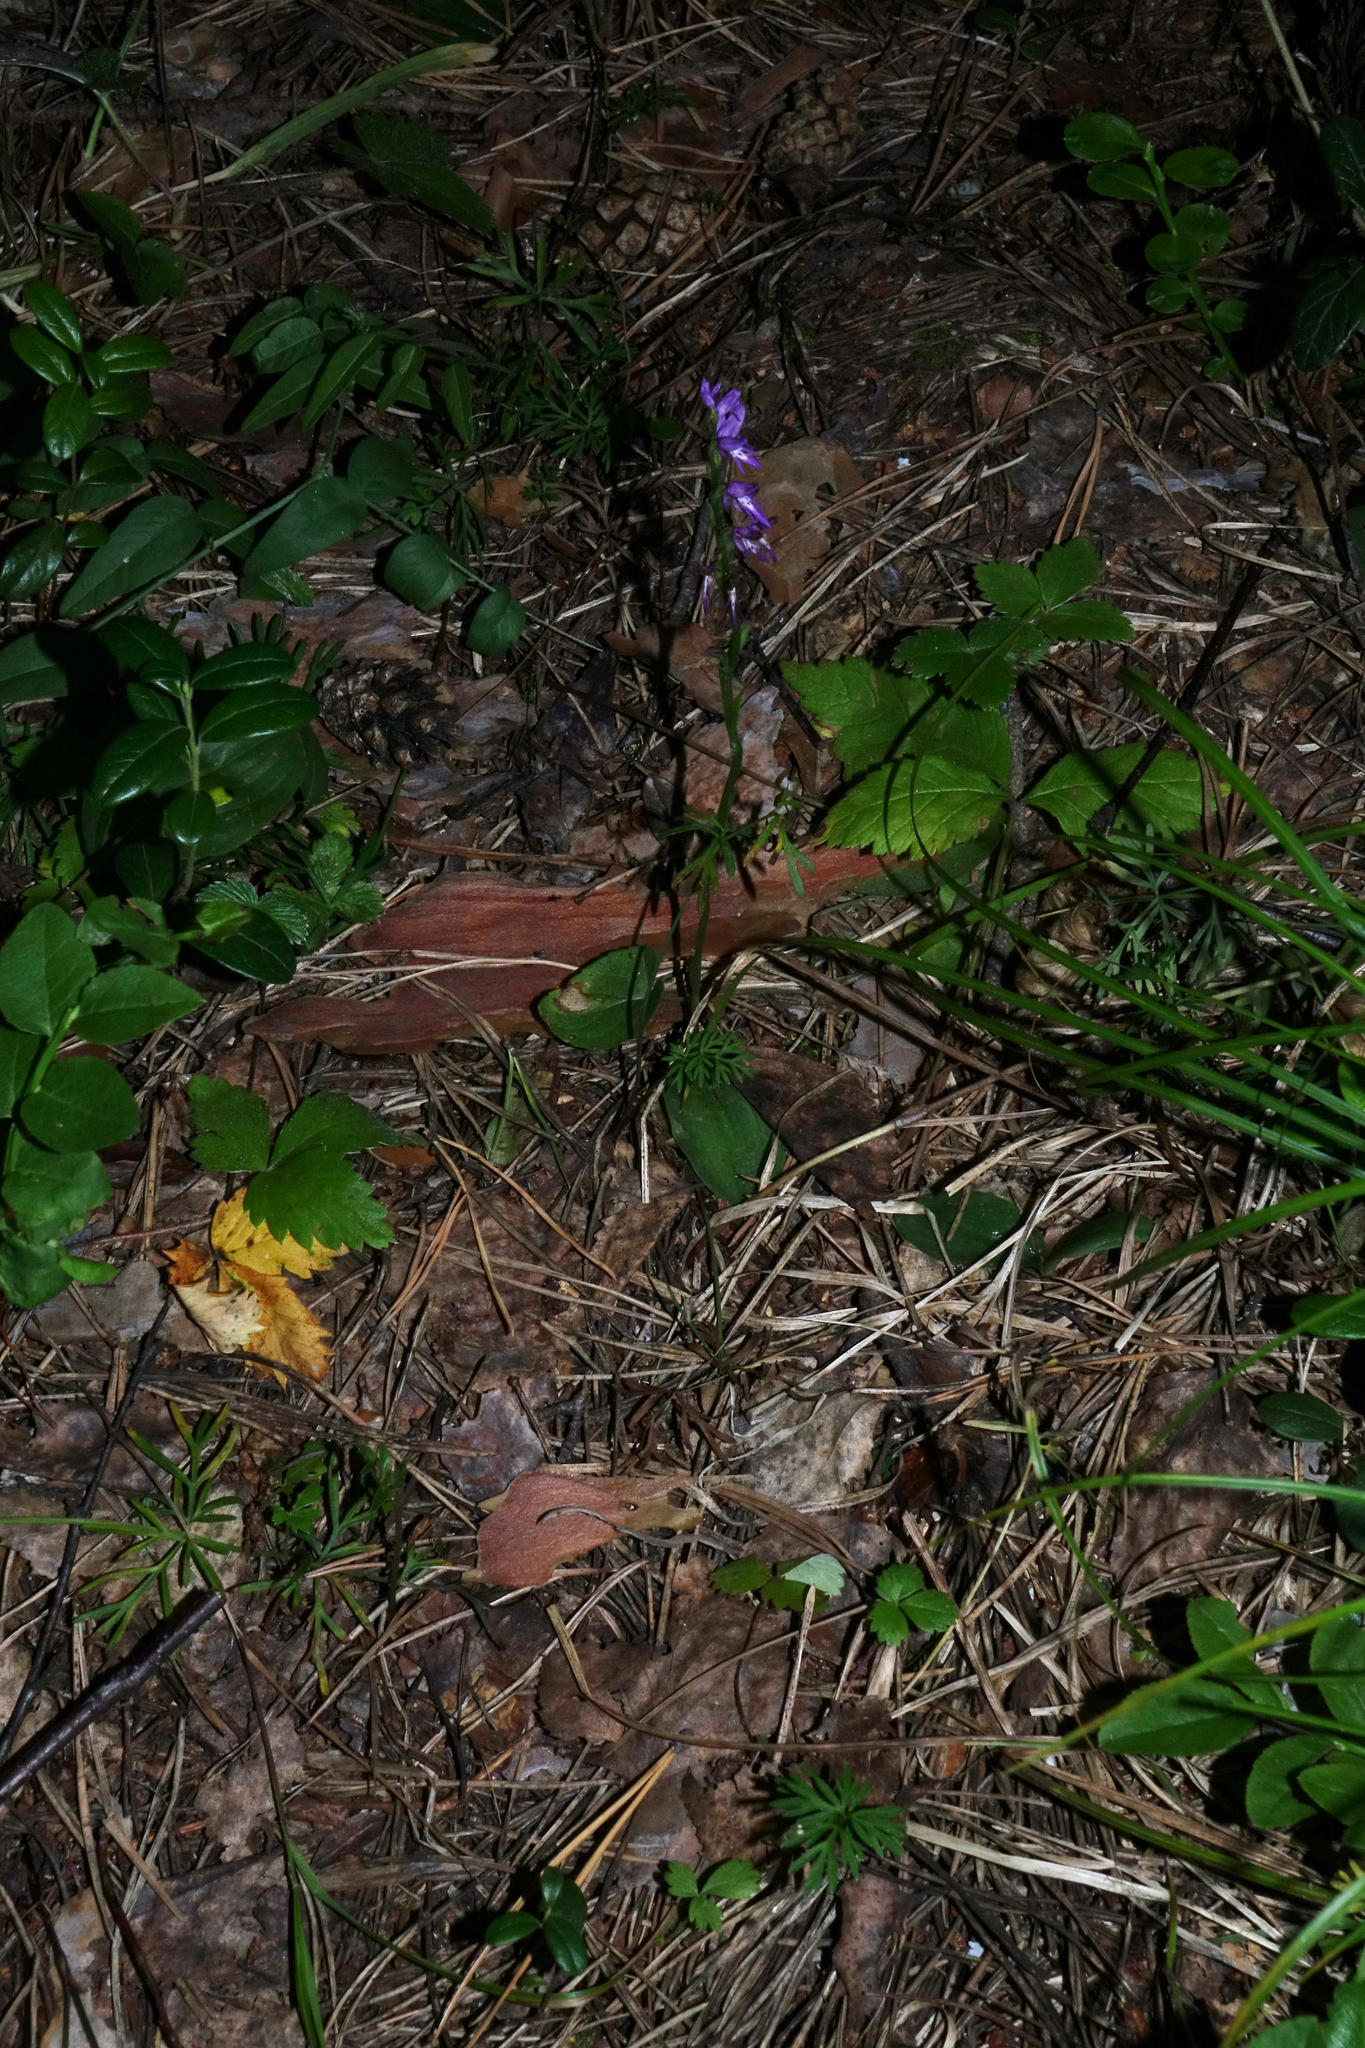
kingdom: Plantae
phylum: Tracheophyta
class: Liliopsida
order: Asparagales
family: Orchidaceae
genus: Hemipilia
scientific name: Hemipilia cucullata
